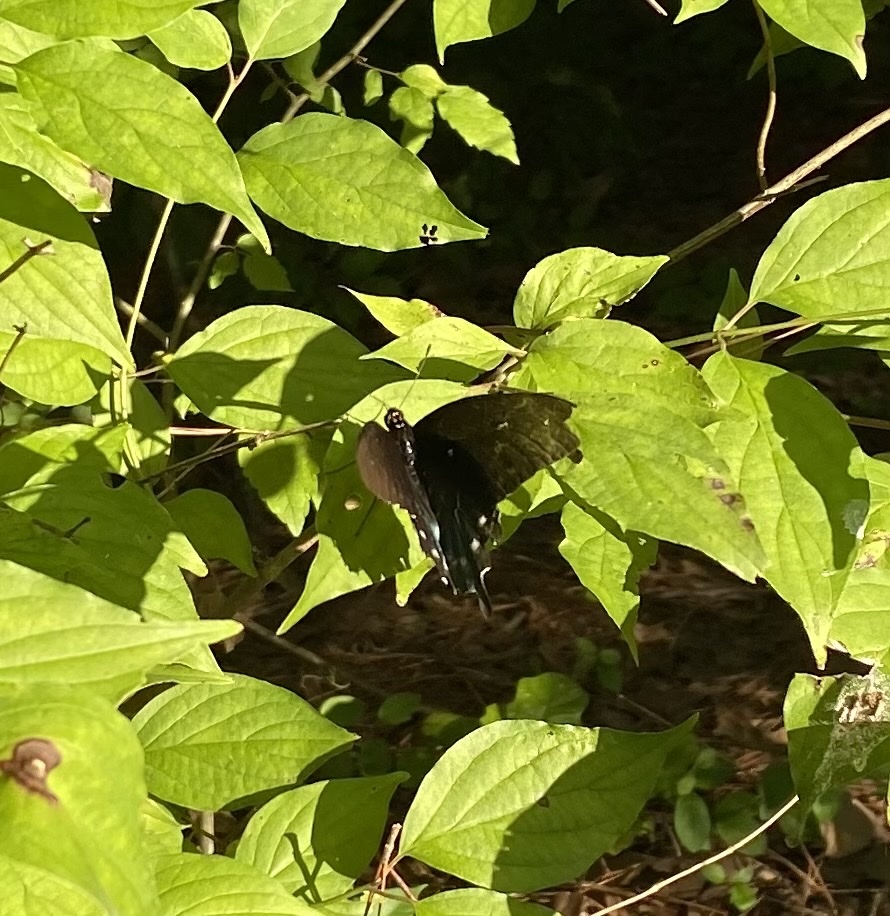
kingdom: Animalia
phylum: Arthropoda
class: Insecta
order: Lepidoptera
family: Papilionidae
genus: Battus
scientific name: Battus philenor
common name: Pipevine swallowtail
